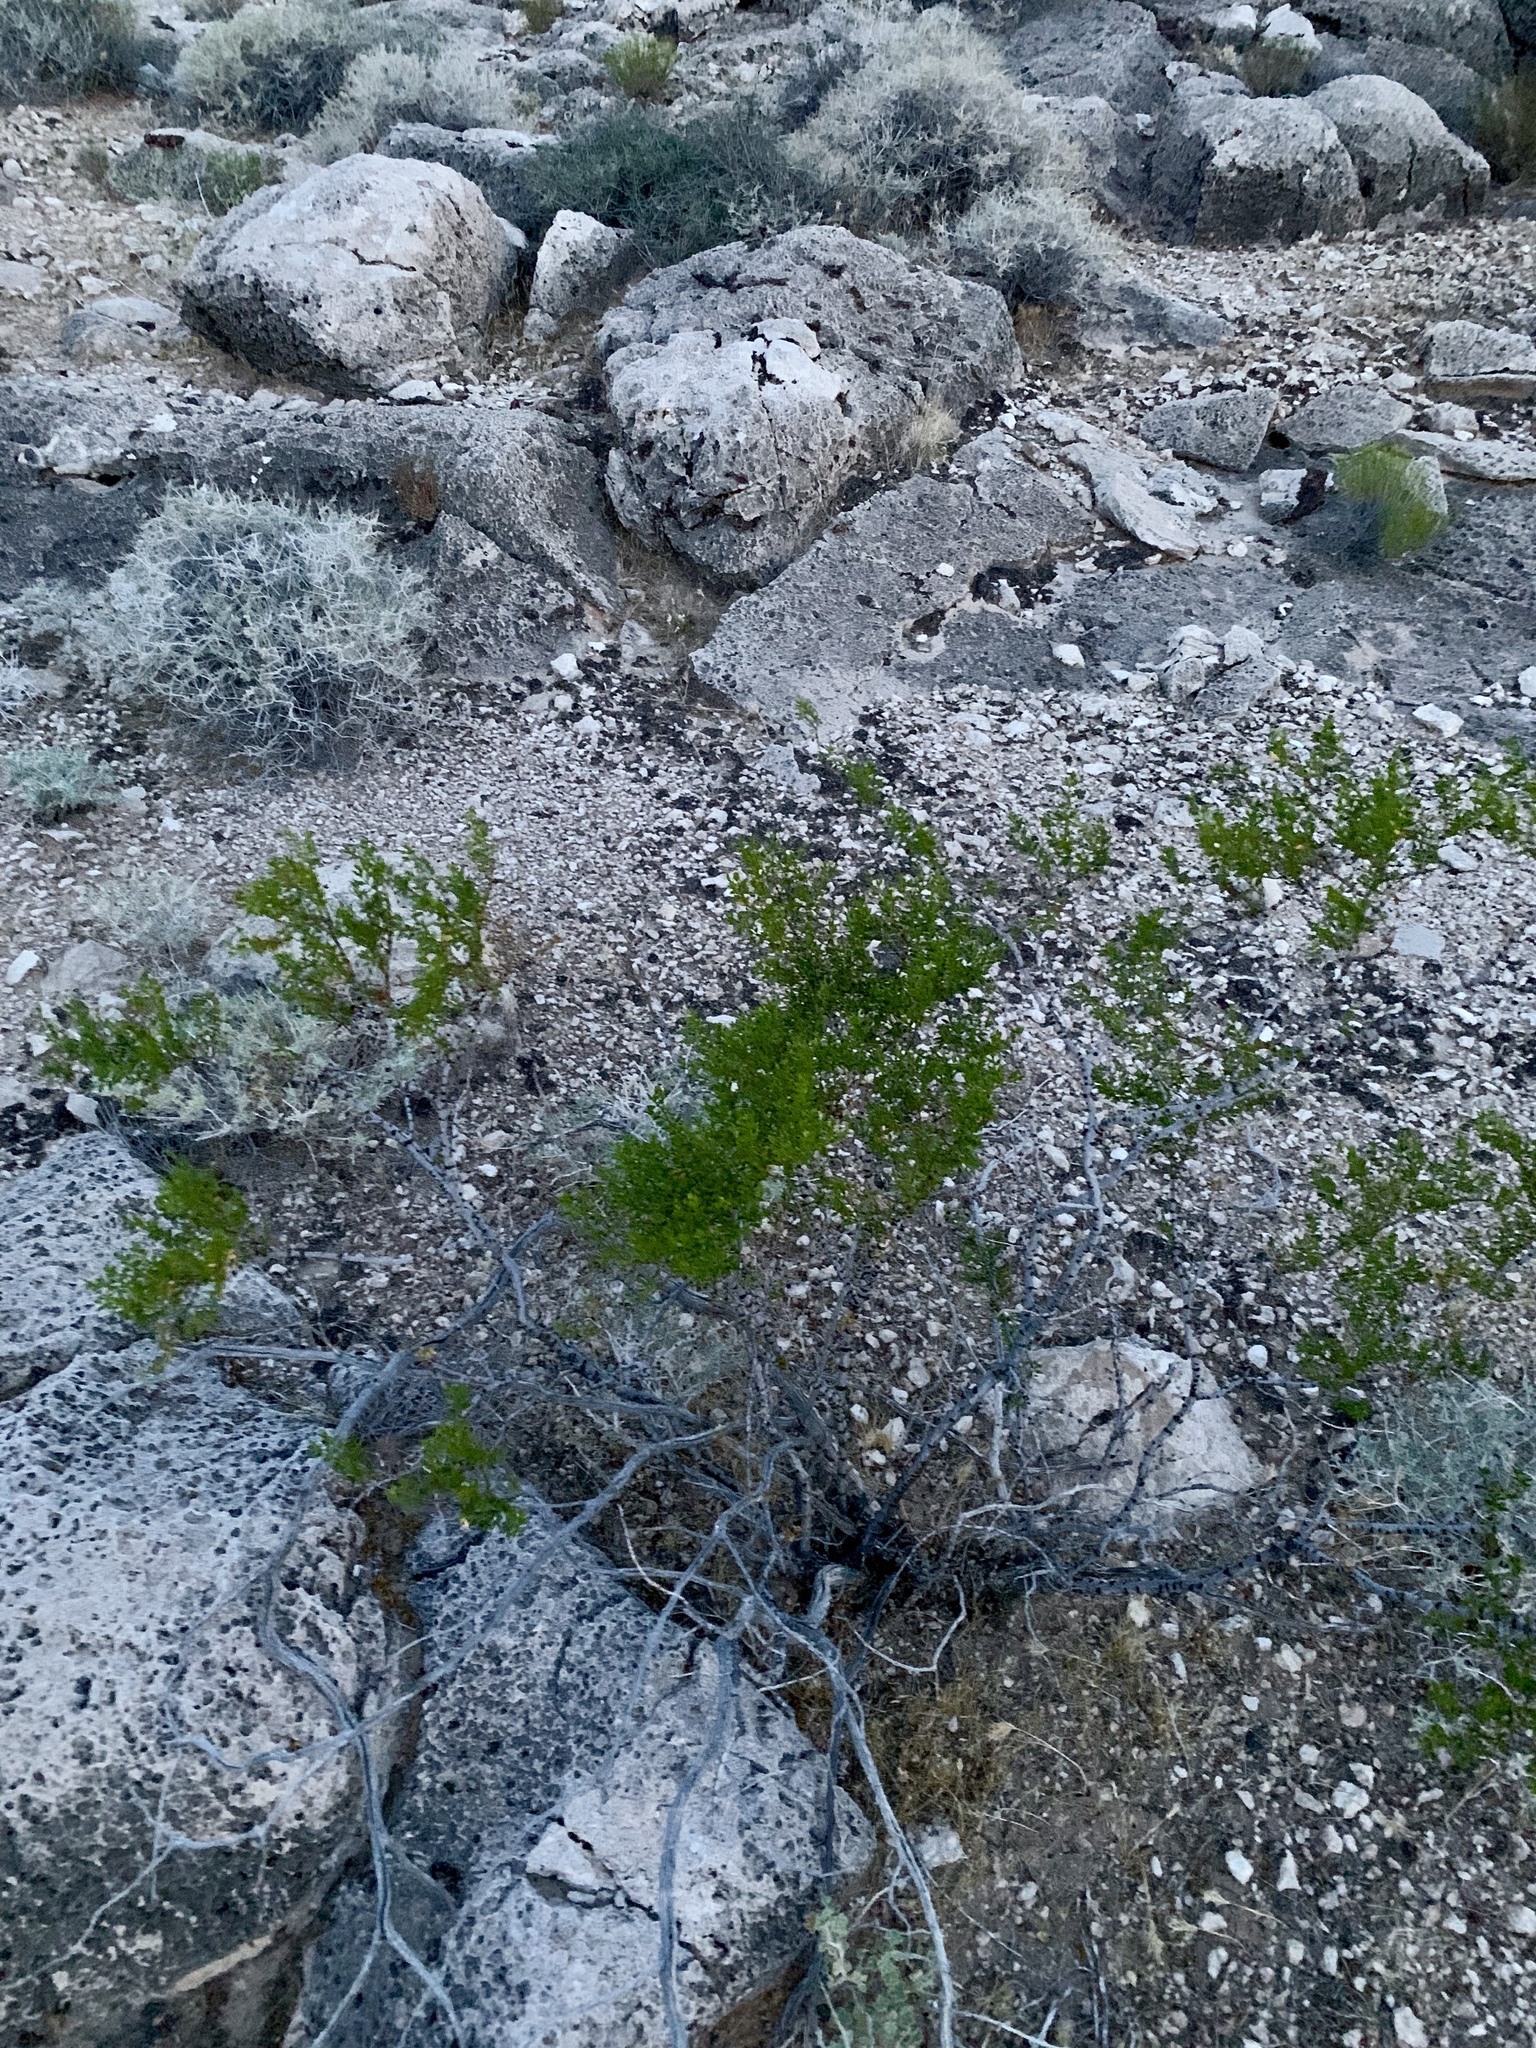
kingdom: Plantae
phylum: Tracheophyta
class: Magnoliopsida
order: Zygophyllales
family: Zygophyllaceae
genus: Larrea
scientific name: Larrea tridentata
